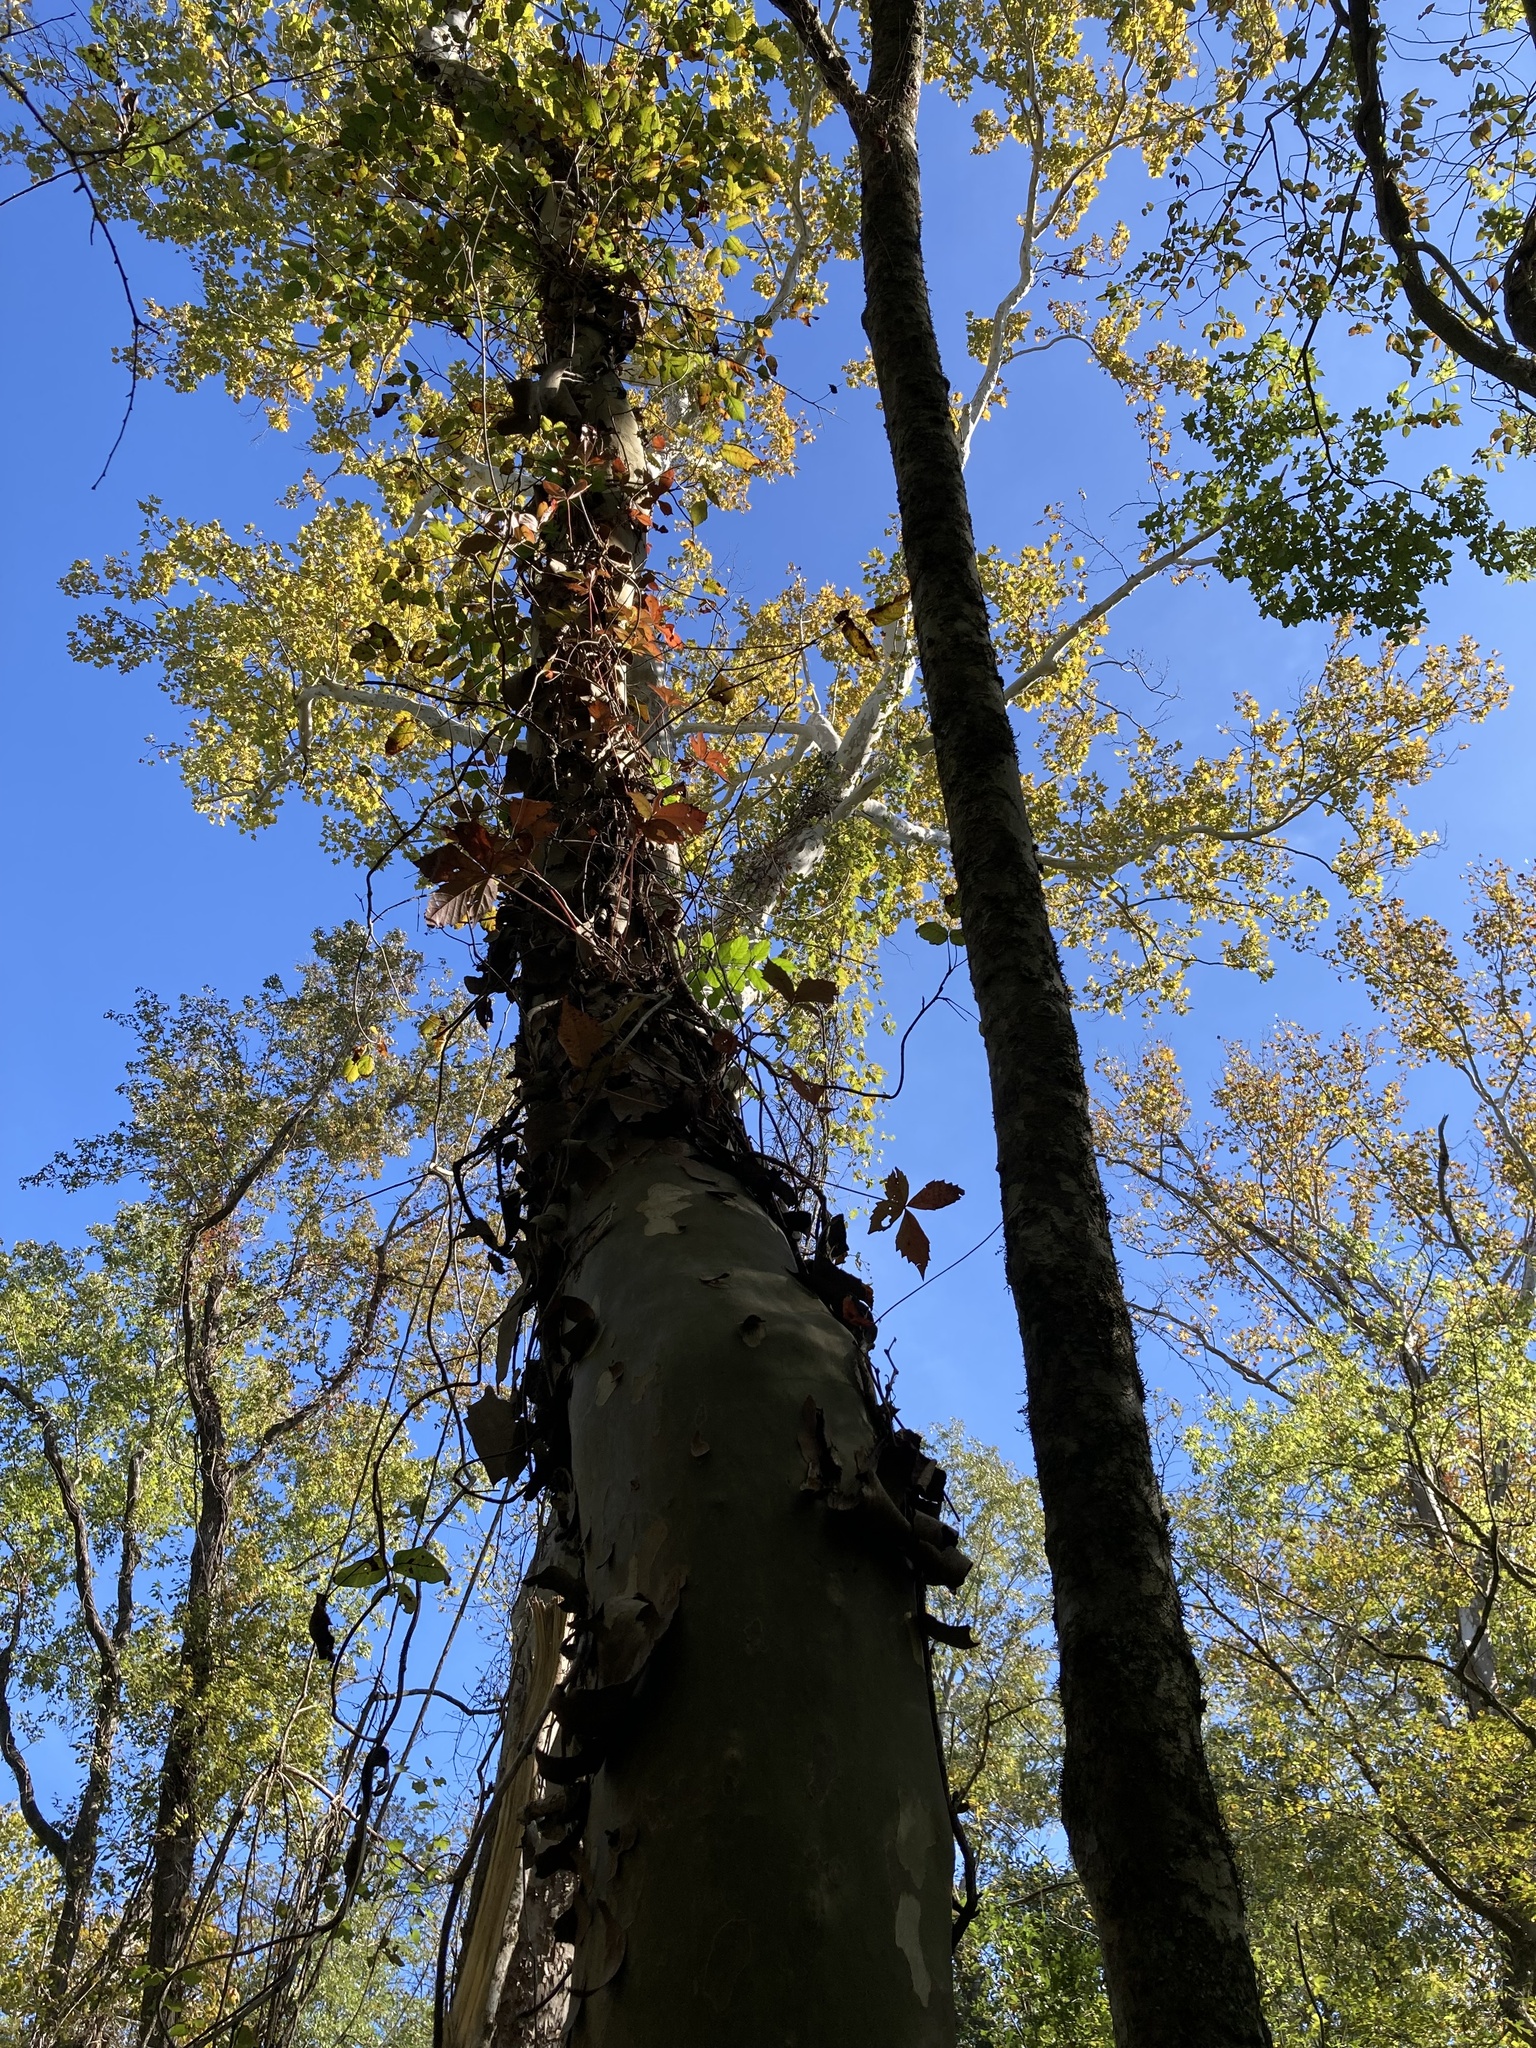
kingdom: Plantae
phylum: Tracheophyta
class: Magnoliopsida
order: Proteales
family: Platanaceae
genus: Platanus
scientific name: Platanus occidentalis
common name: American sycamore
